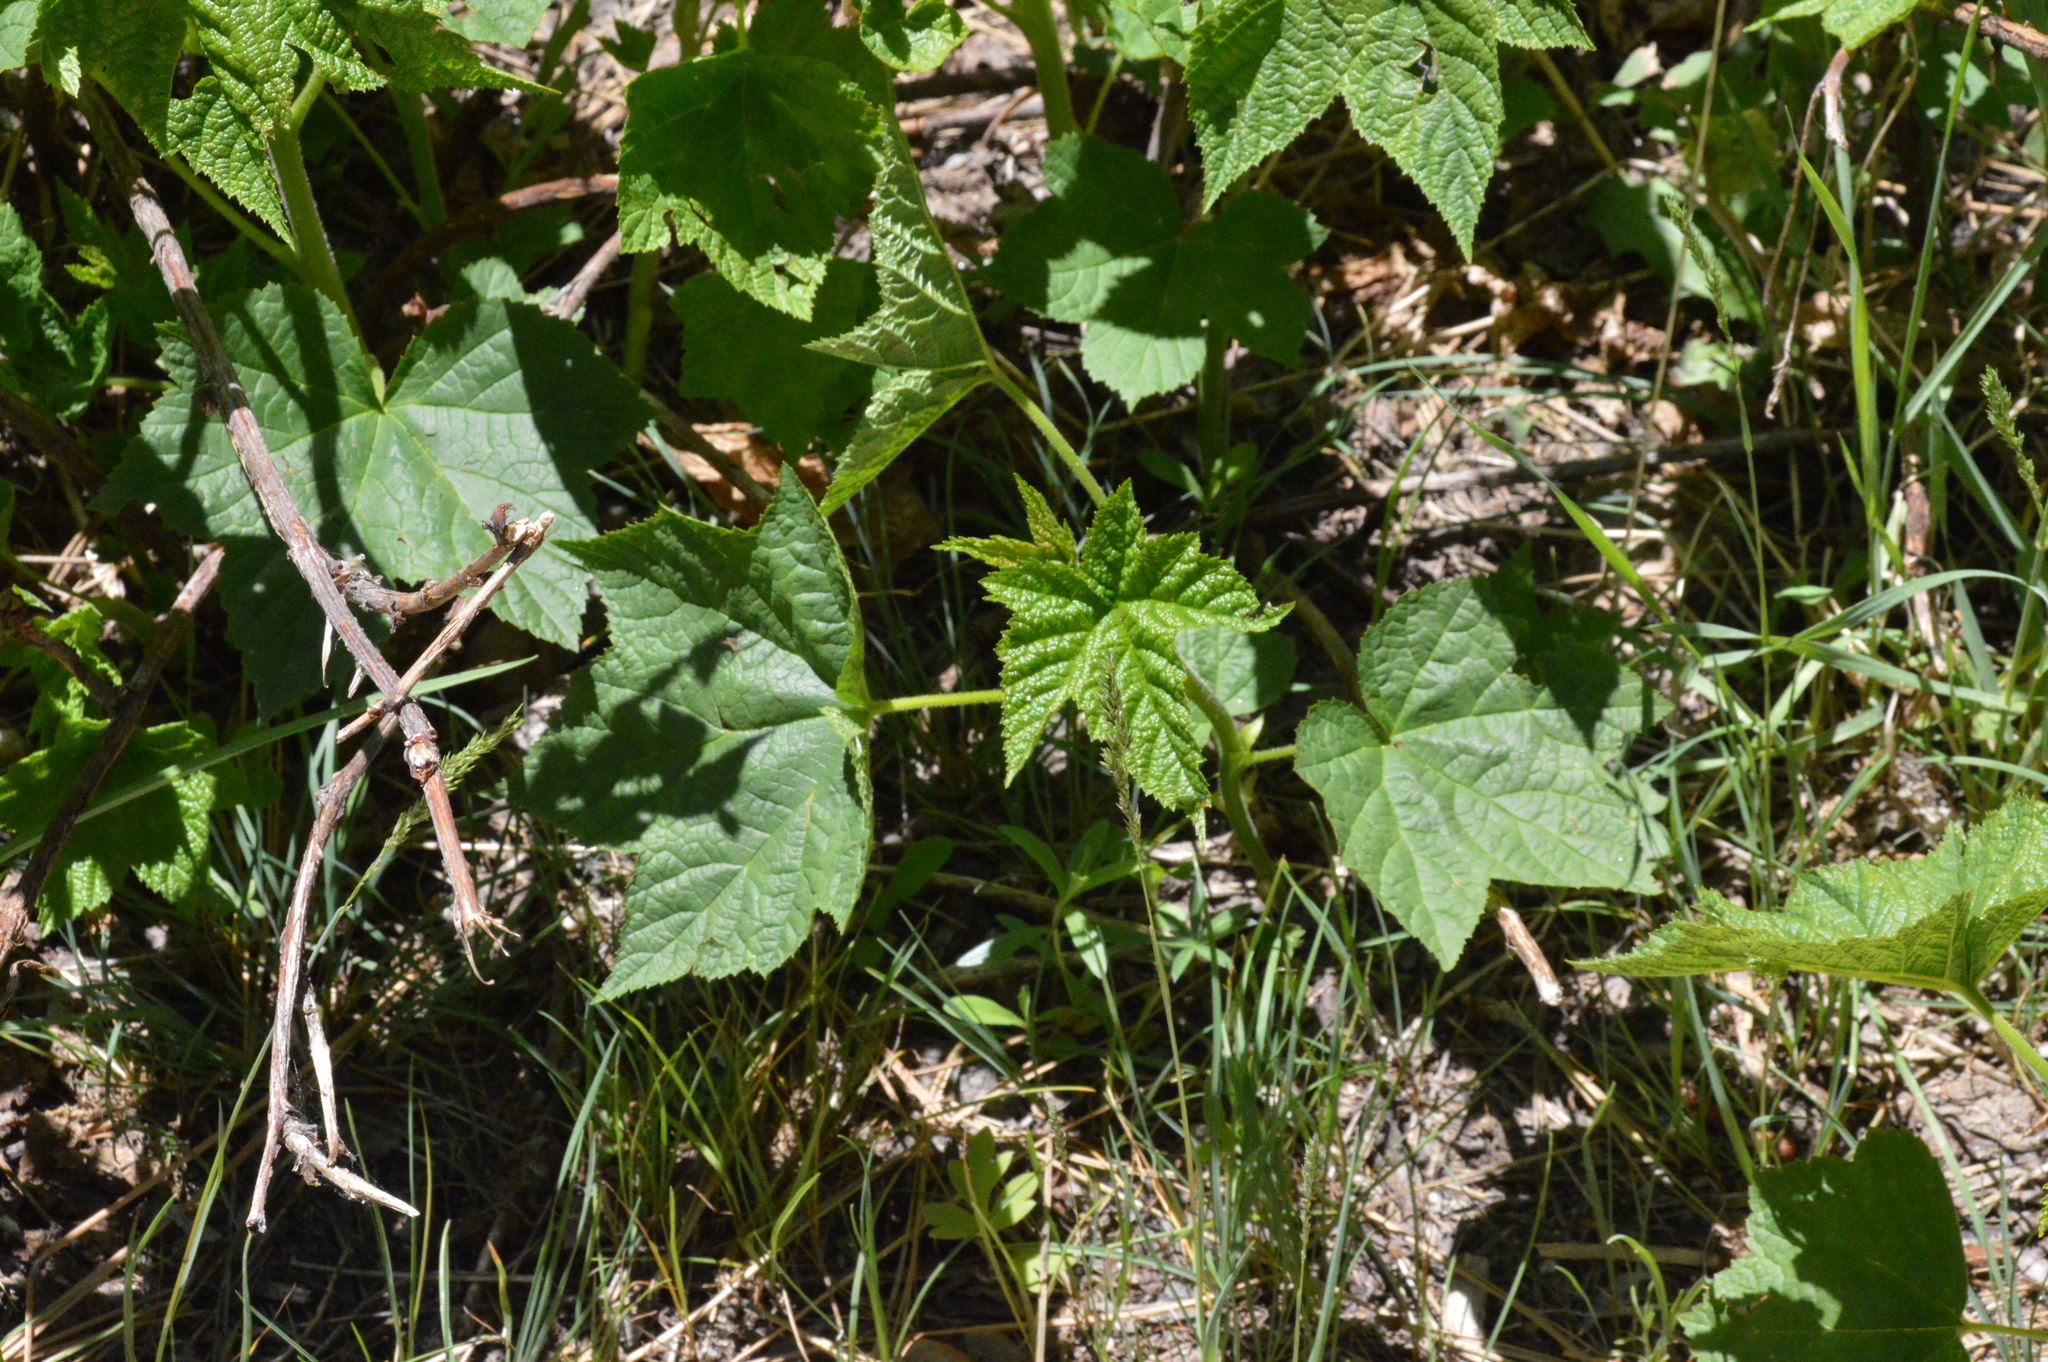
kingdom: Plantae
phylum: Tracheophyta
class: Magnoliopsida
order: Rosales
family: Rosaceae
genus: Rubus
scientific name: Rubus parviflorus
